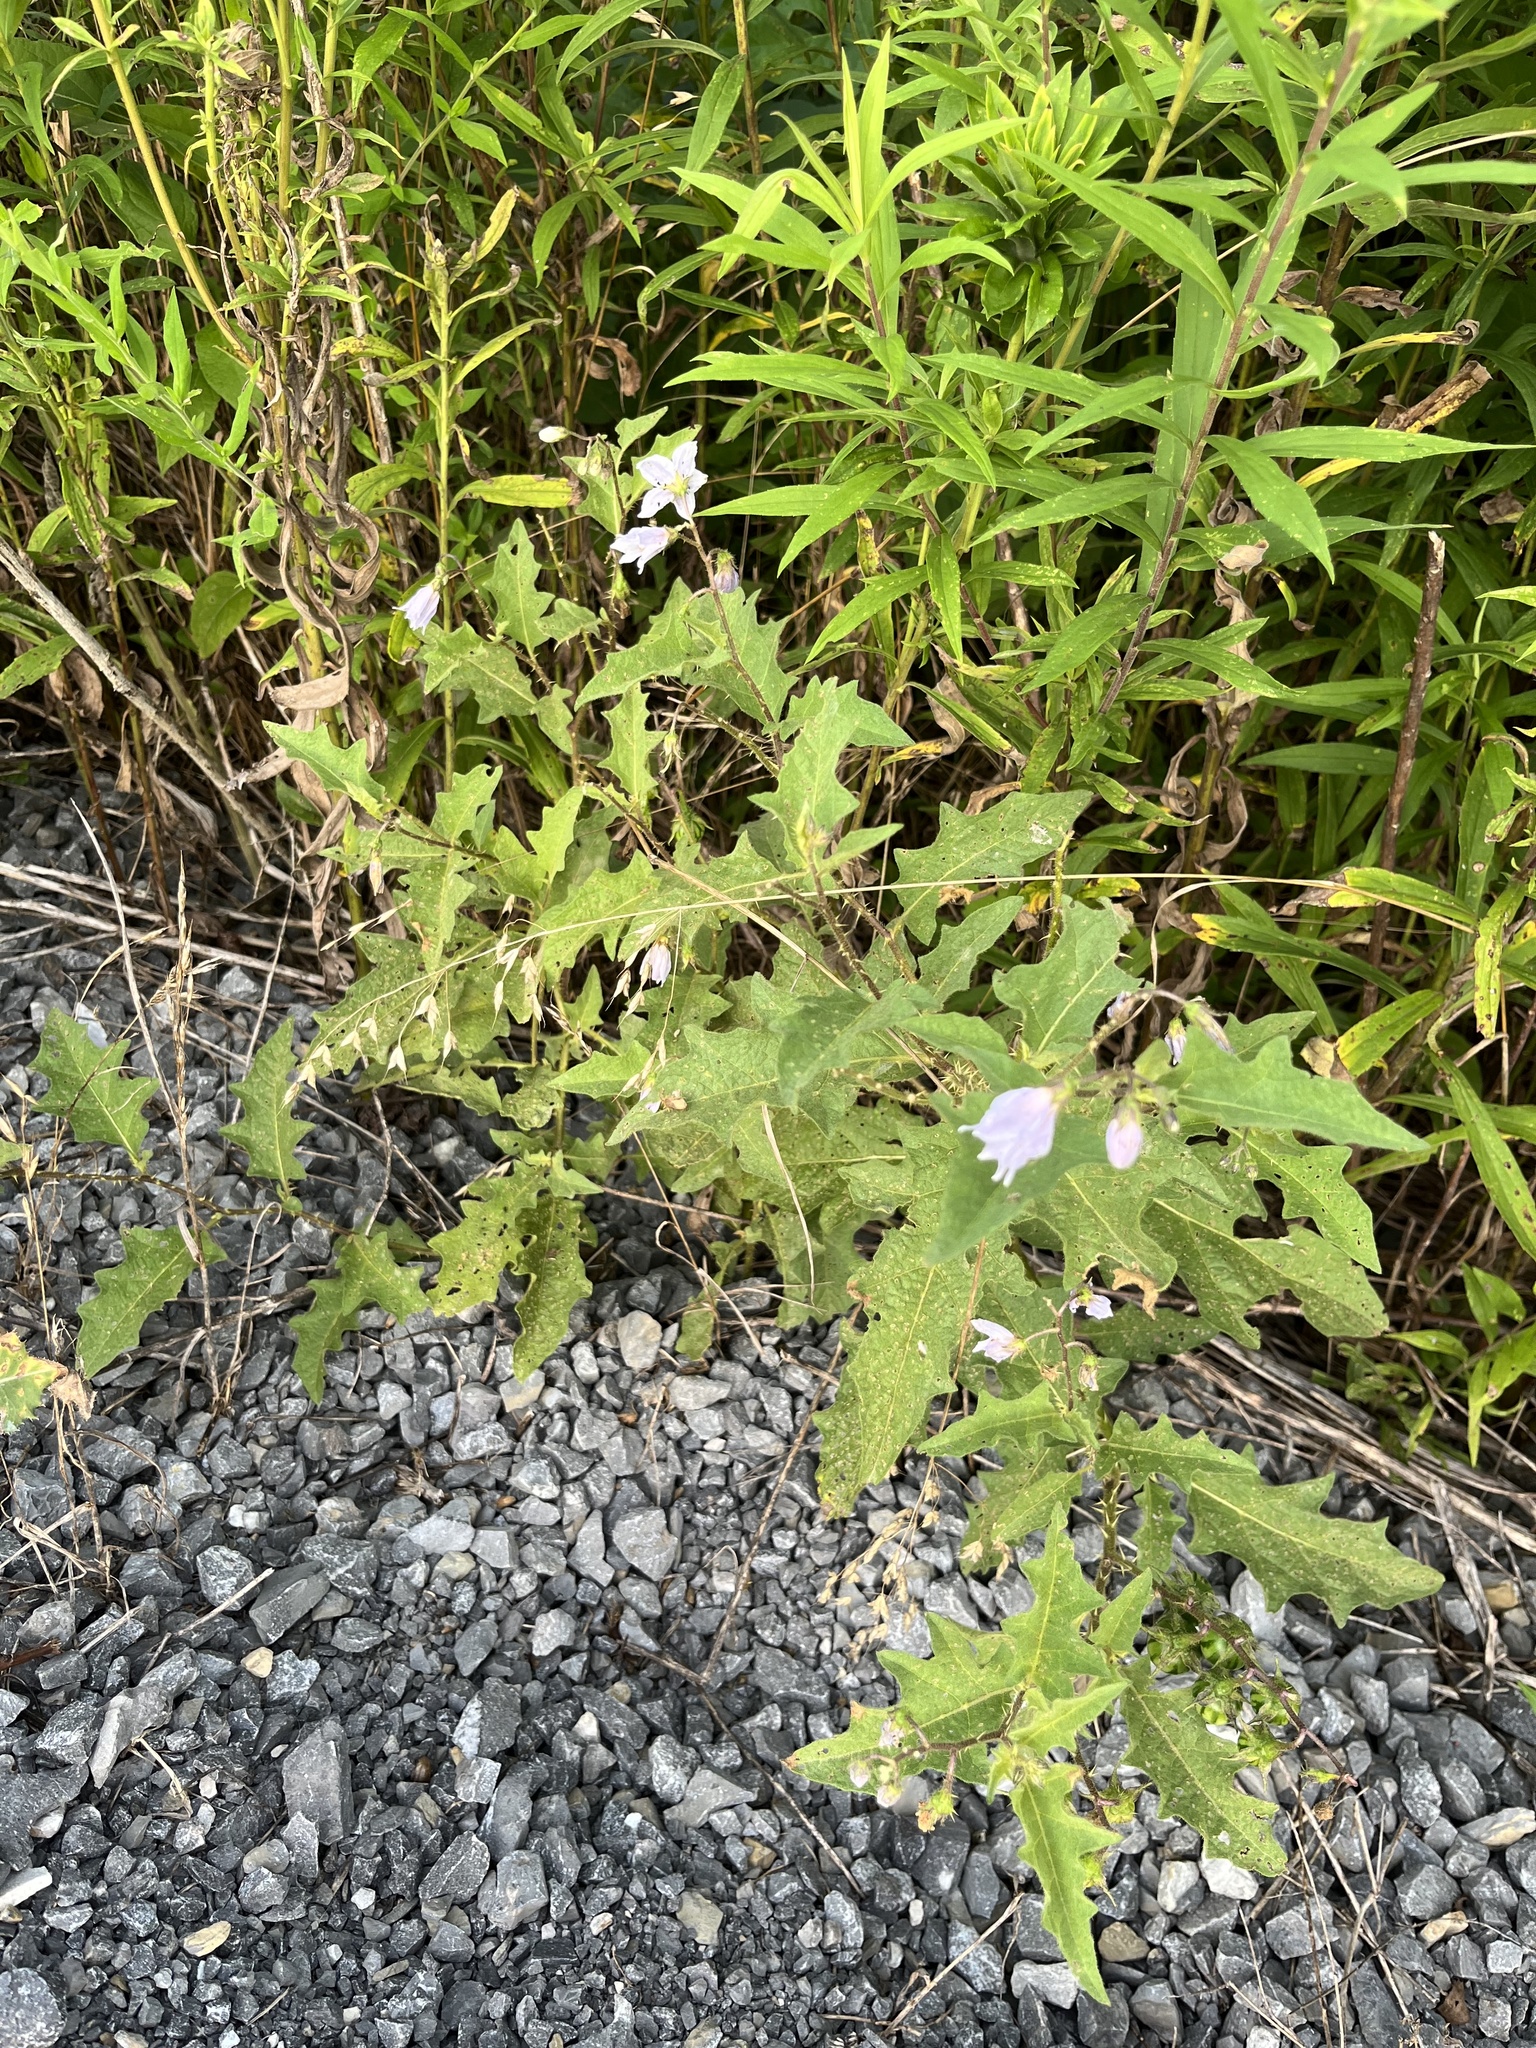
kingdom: Plantae
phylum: Tracheophyta
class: Magnoliopsida
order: Solanales
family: Solanaceae
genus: Solanum
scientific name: Solanum carolinense
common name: Horse-nettle
